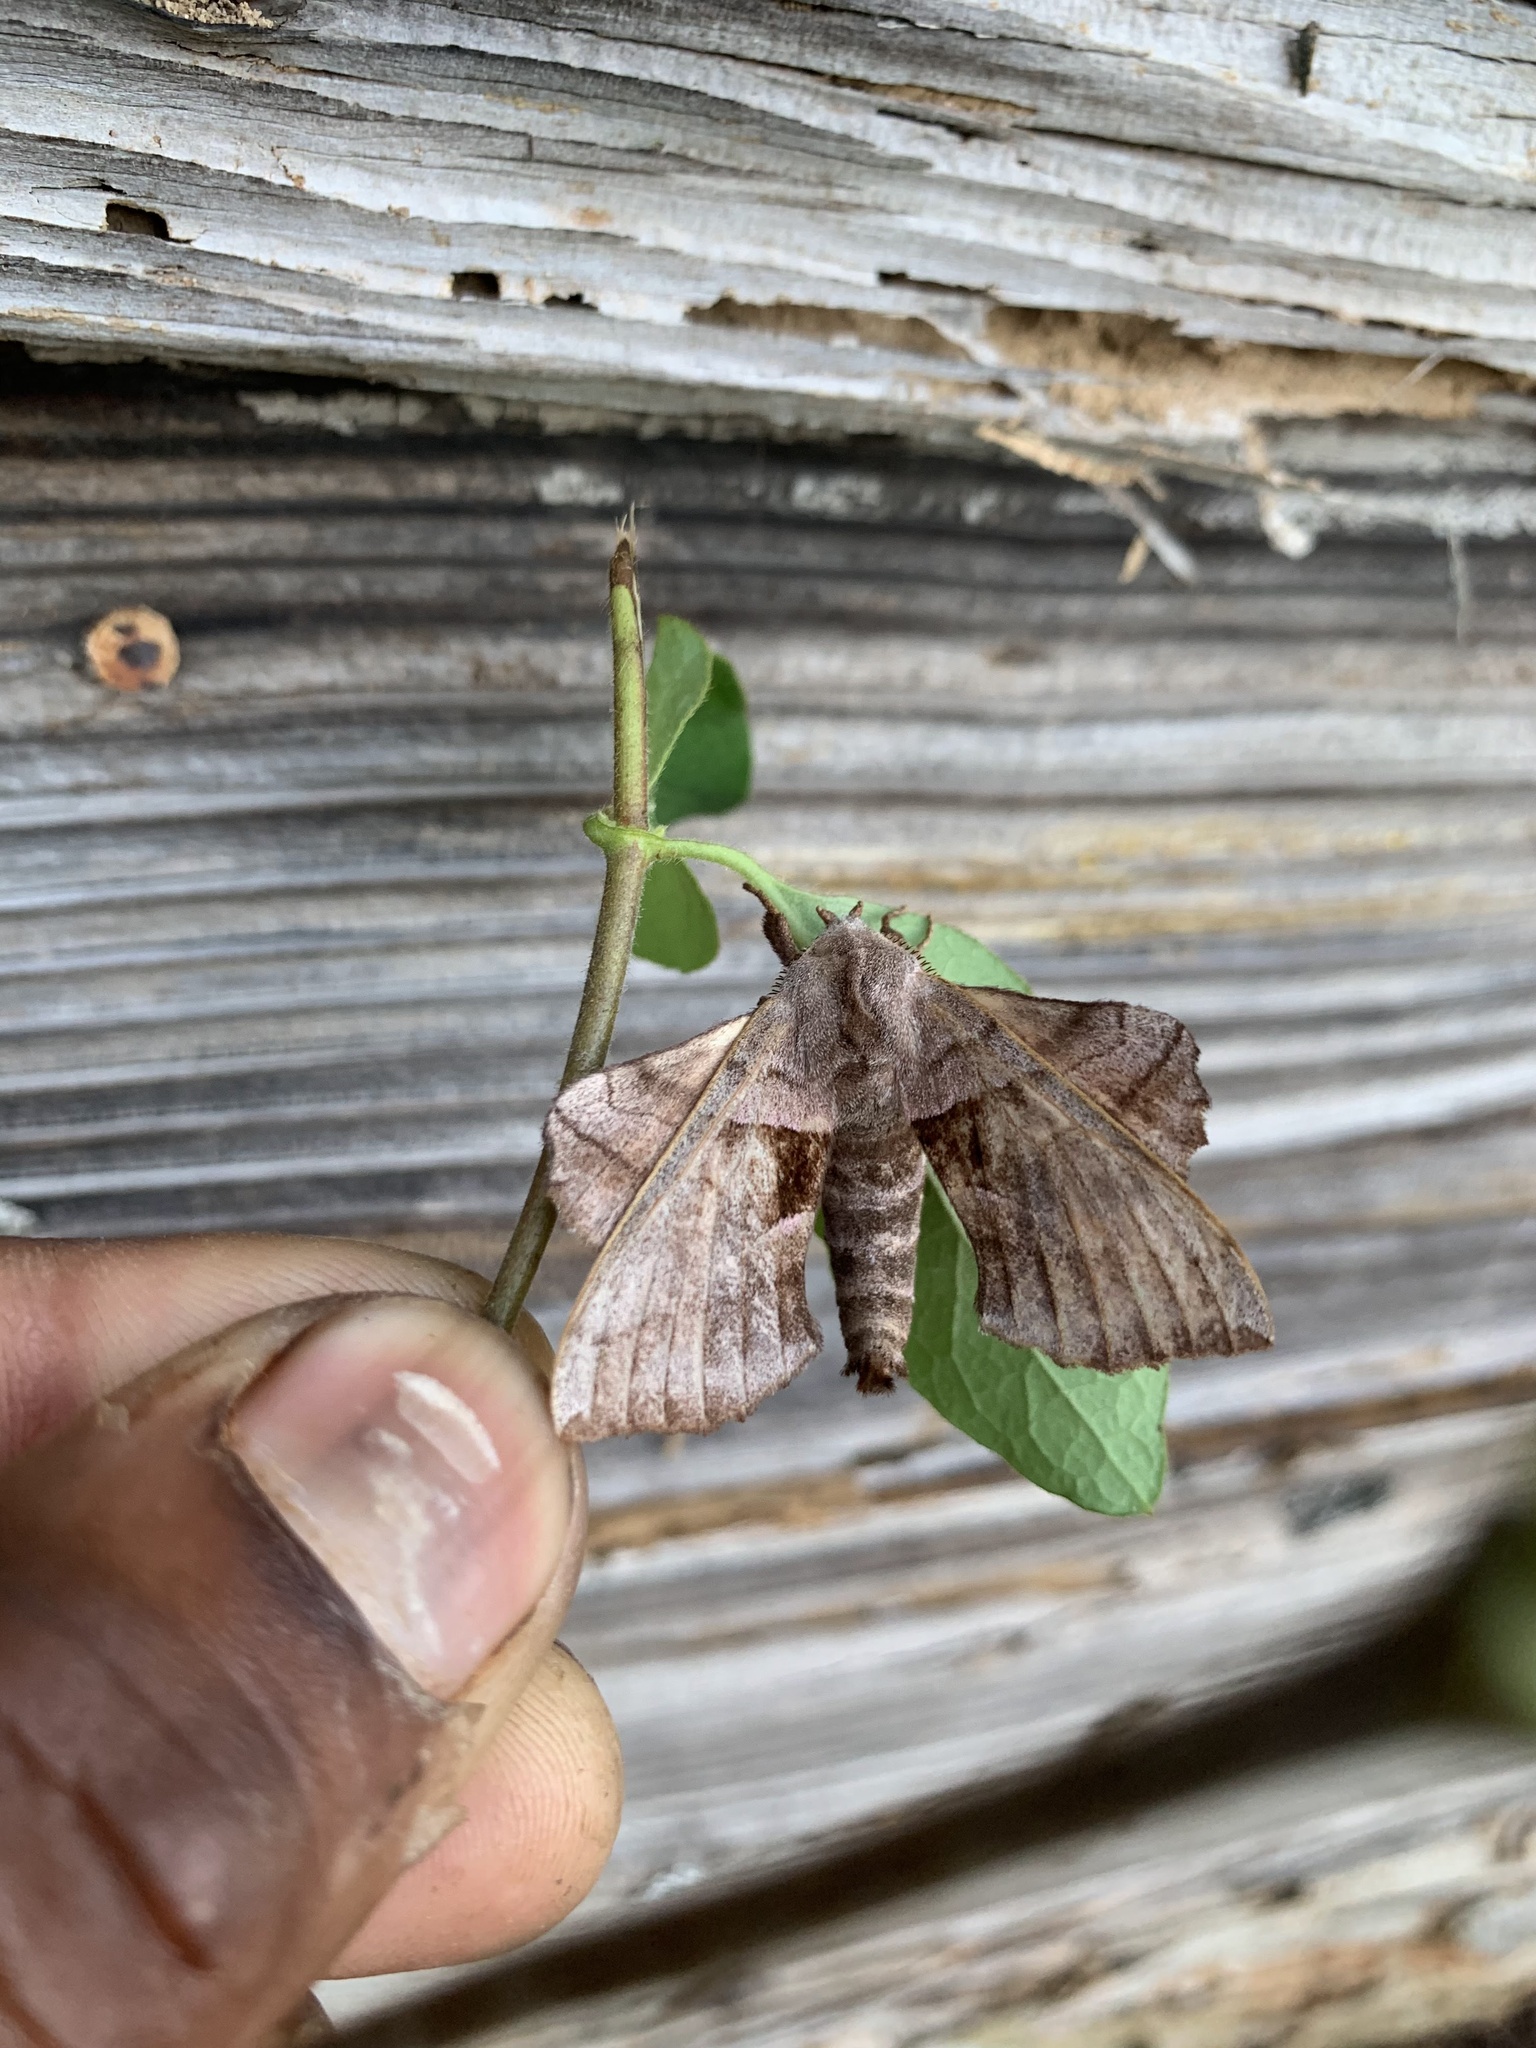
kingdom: Animalia
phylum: Arthropoda
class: Insecta
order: Lepidoptera
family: Sphingidae
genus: Amorpha
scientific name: Amorpha juglandis
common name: Walnut sphinx
